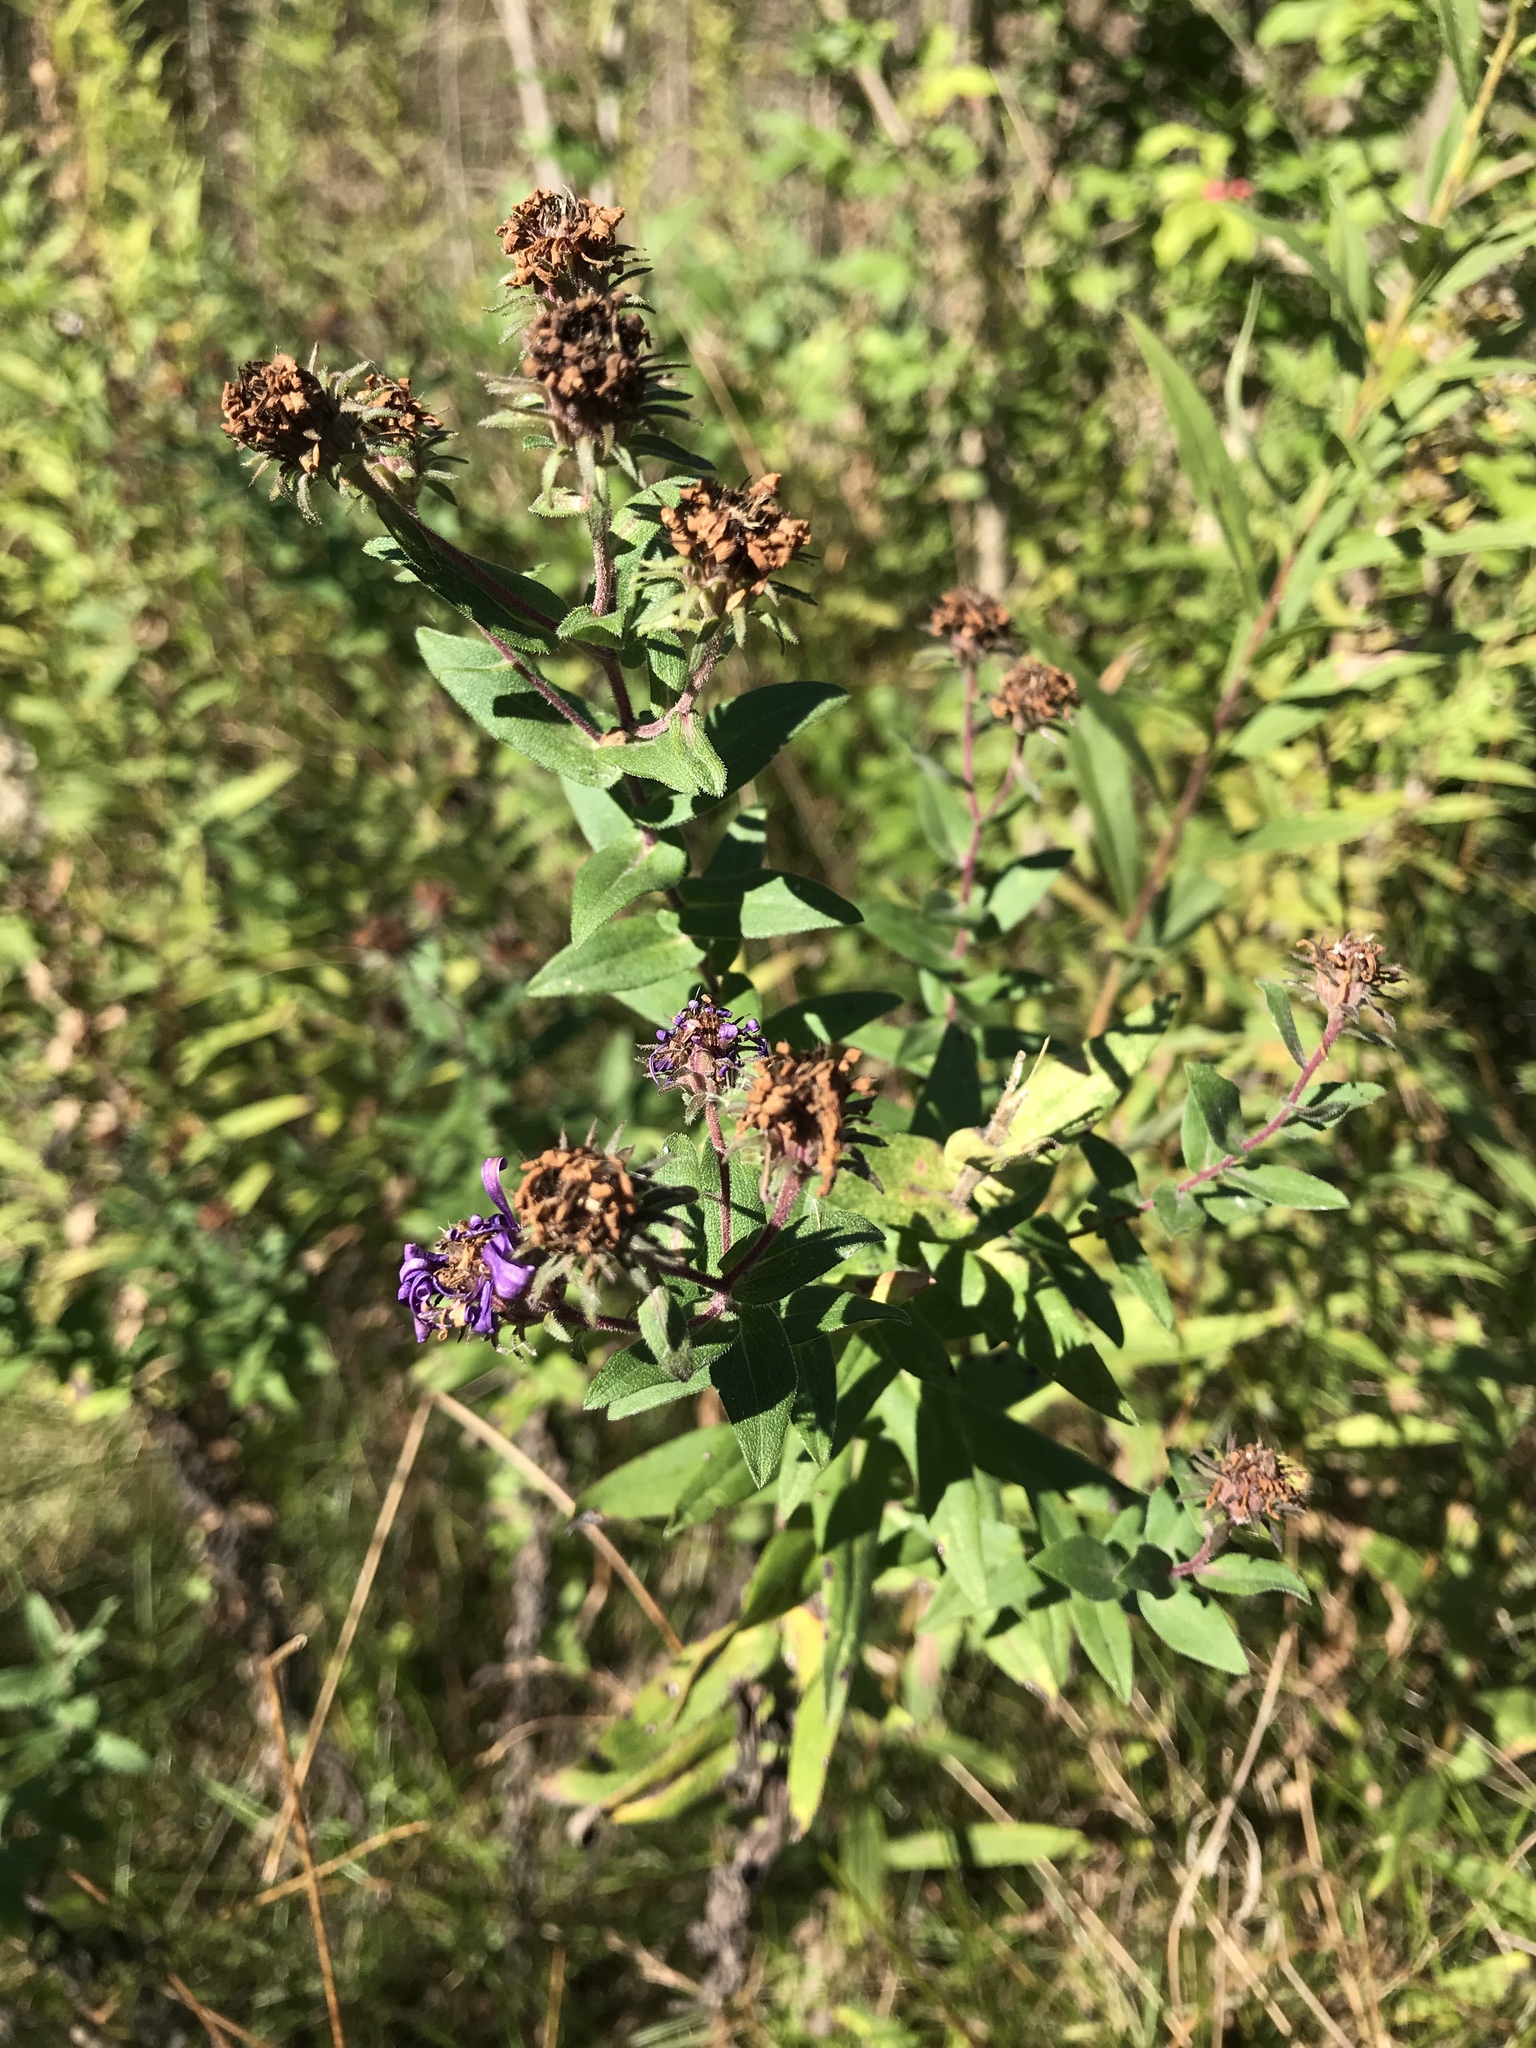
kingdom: Plantae
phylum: Tracheophyta
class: Magnoliopsida
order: Asterales
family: Asteraceae
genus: Symphyotrichum
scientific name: Symphyotrichum novae-angliae
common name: Michaelmas daisy
